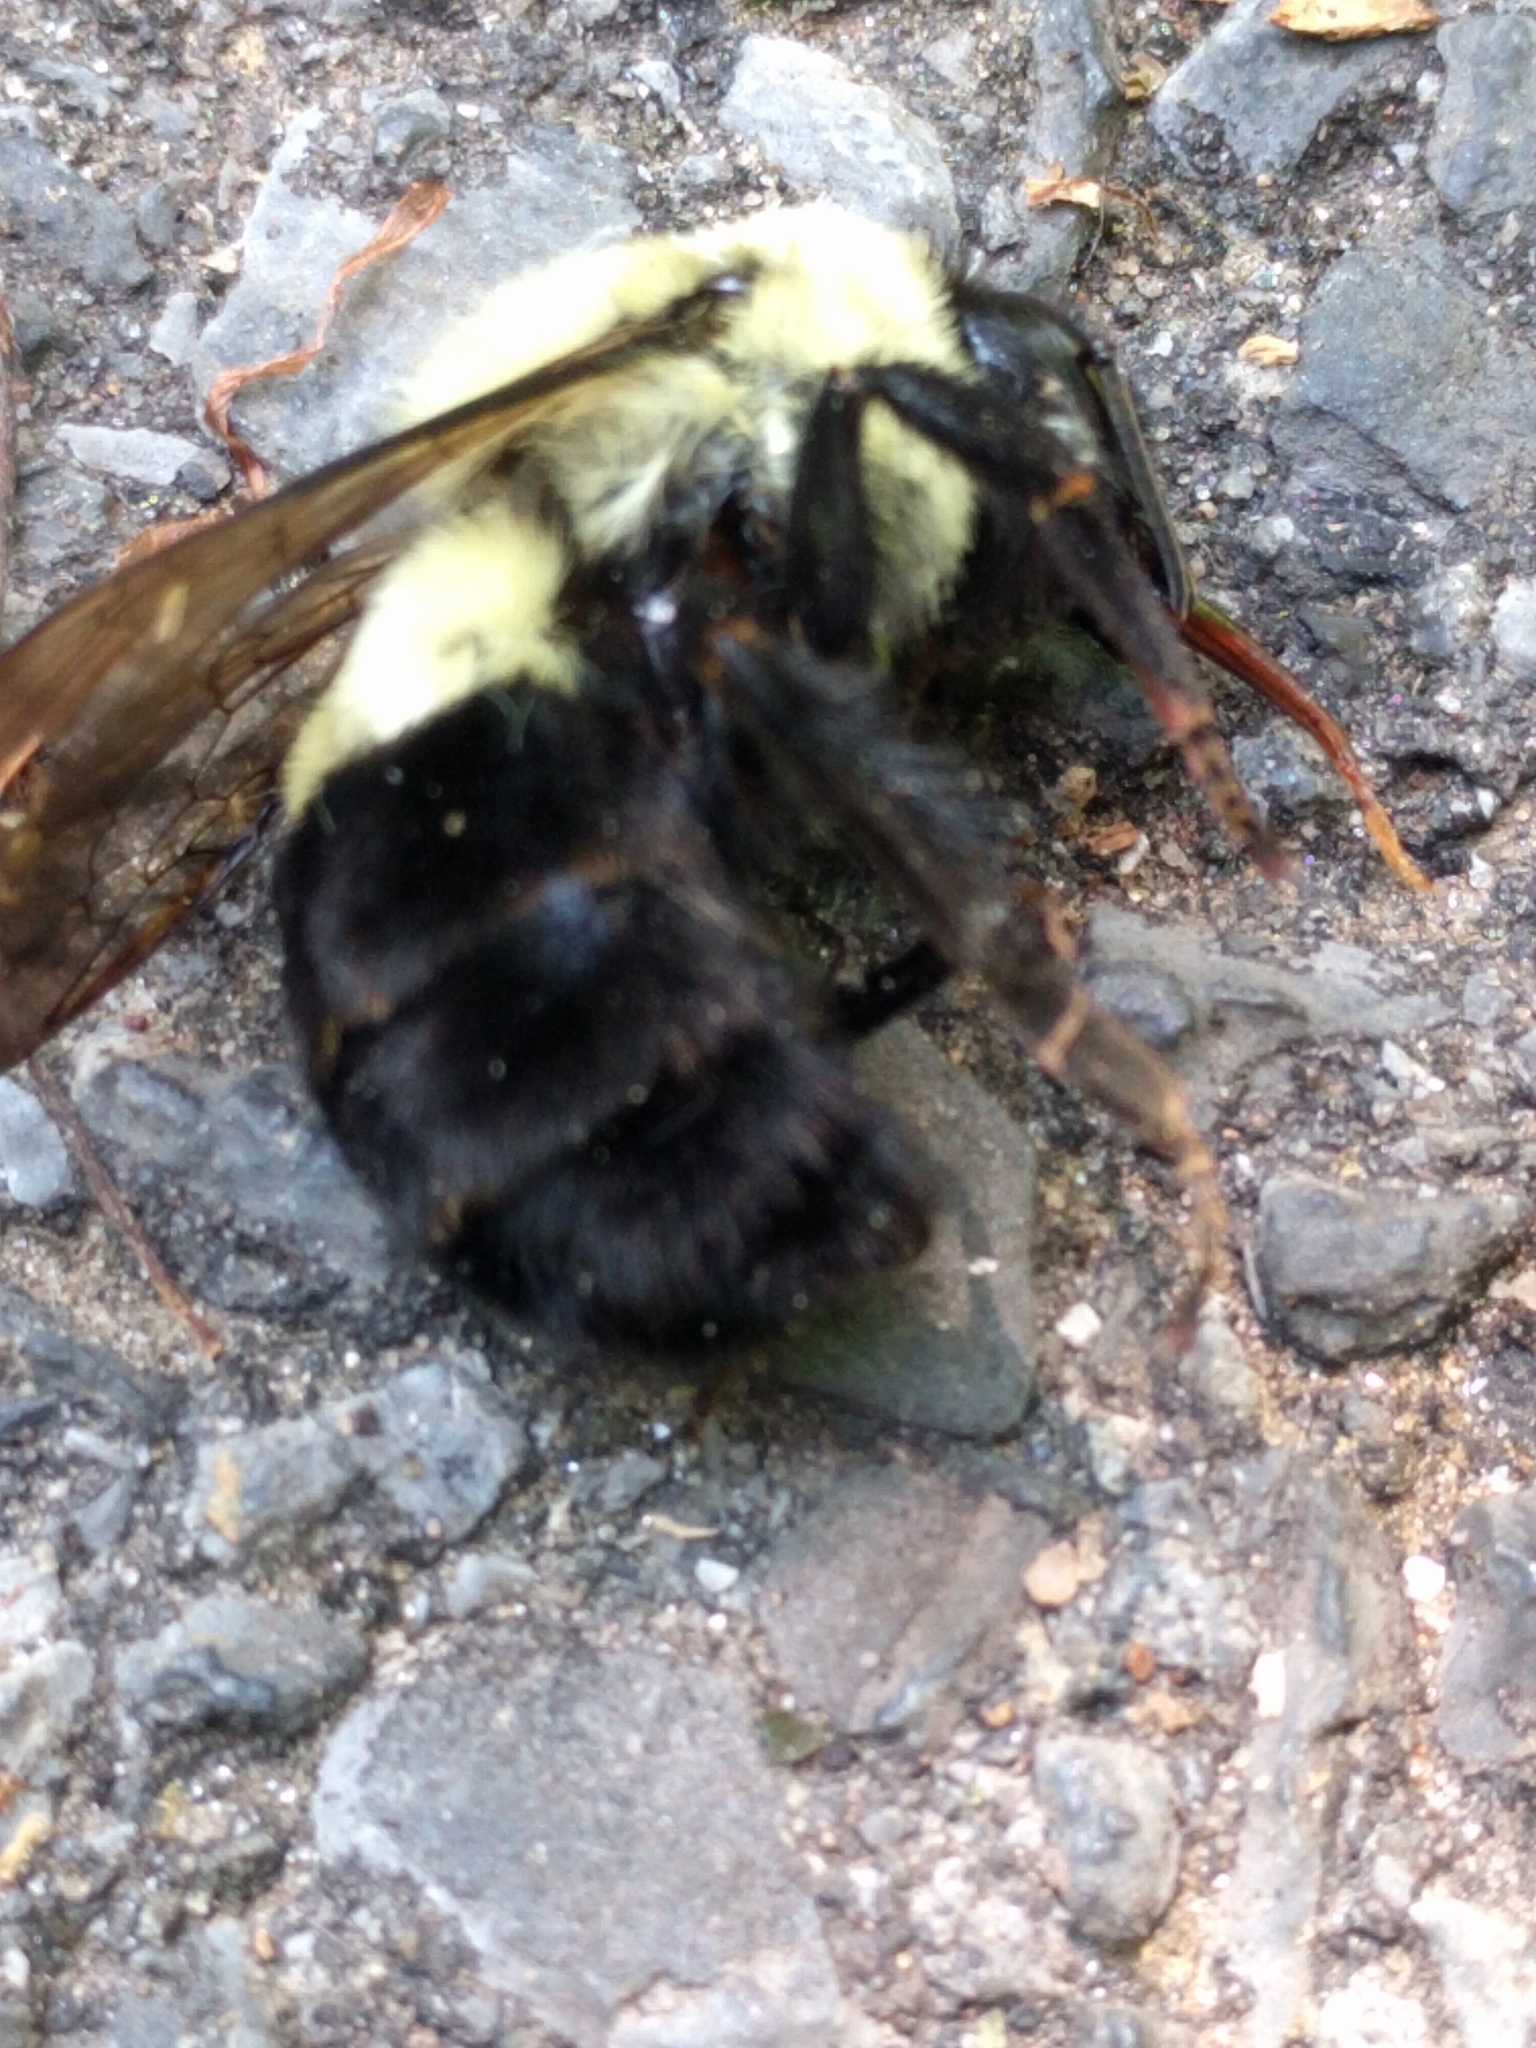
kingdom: Animalia
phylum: Arthropoda
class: Insecta
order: Hymenoptera
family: Apidae
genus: Bombus
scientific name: Bombus impatiens
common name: Common eastern bumble bee
